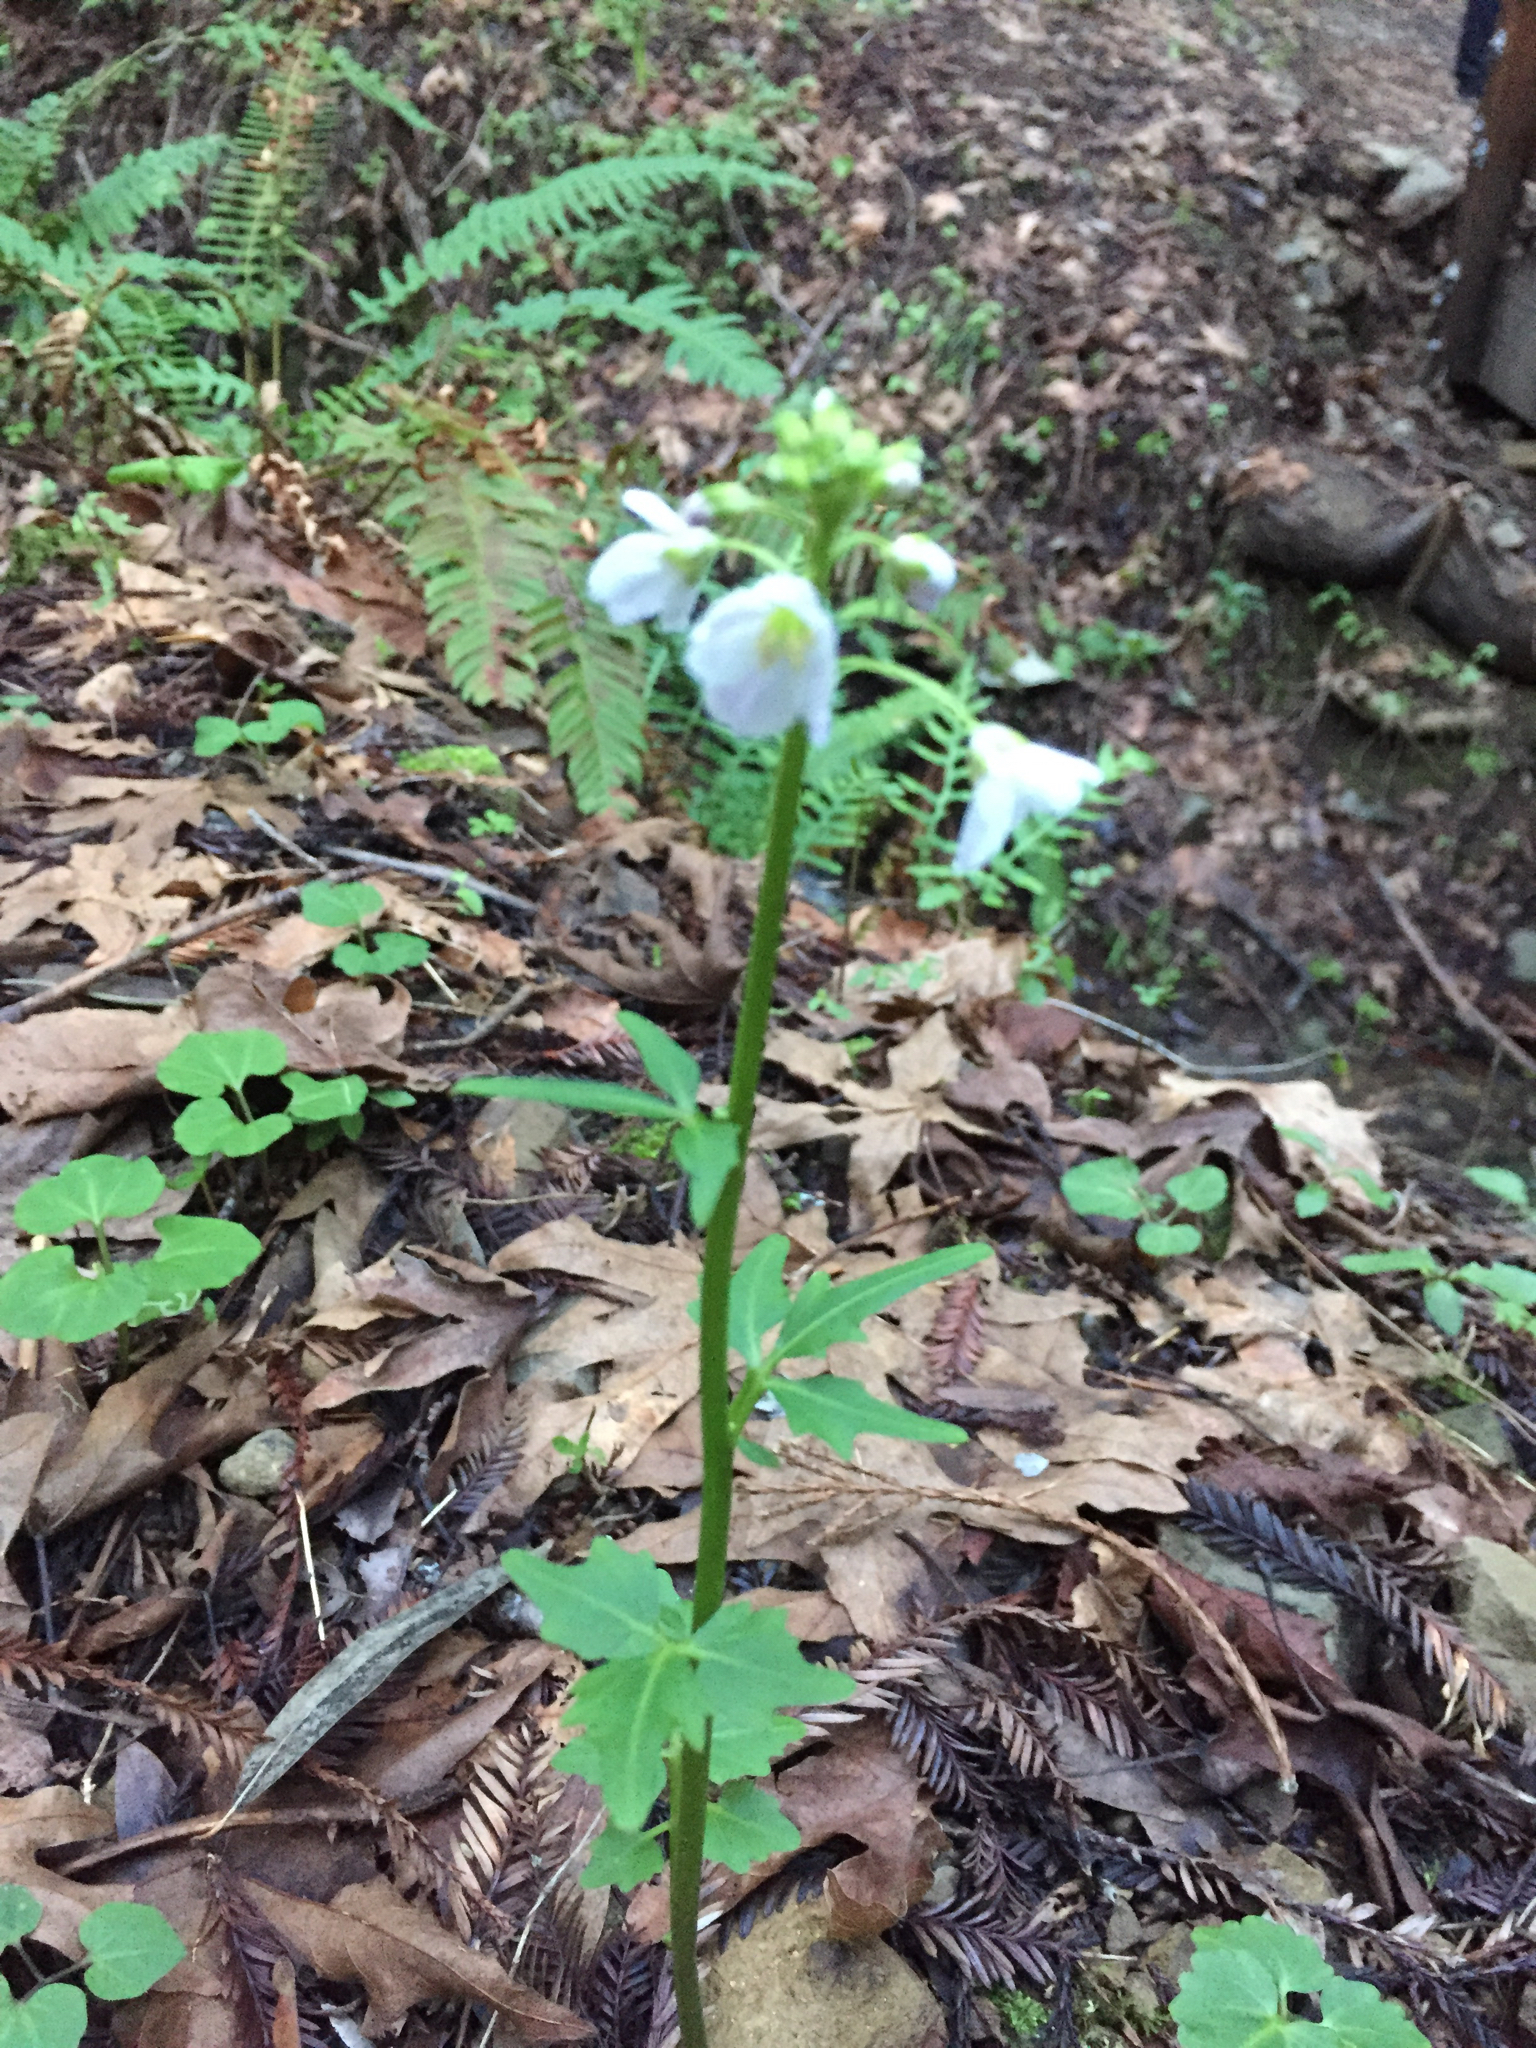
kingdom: Plantae
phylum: Tracheophyta
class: Magnoliopsida
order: Brassicales
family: Brassicaceae
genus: Cardamine
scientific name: Cardamine californica
